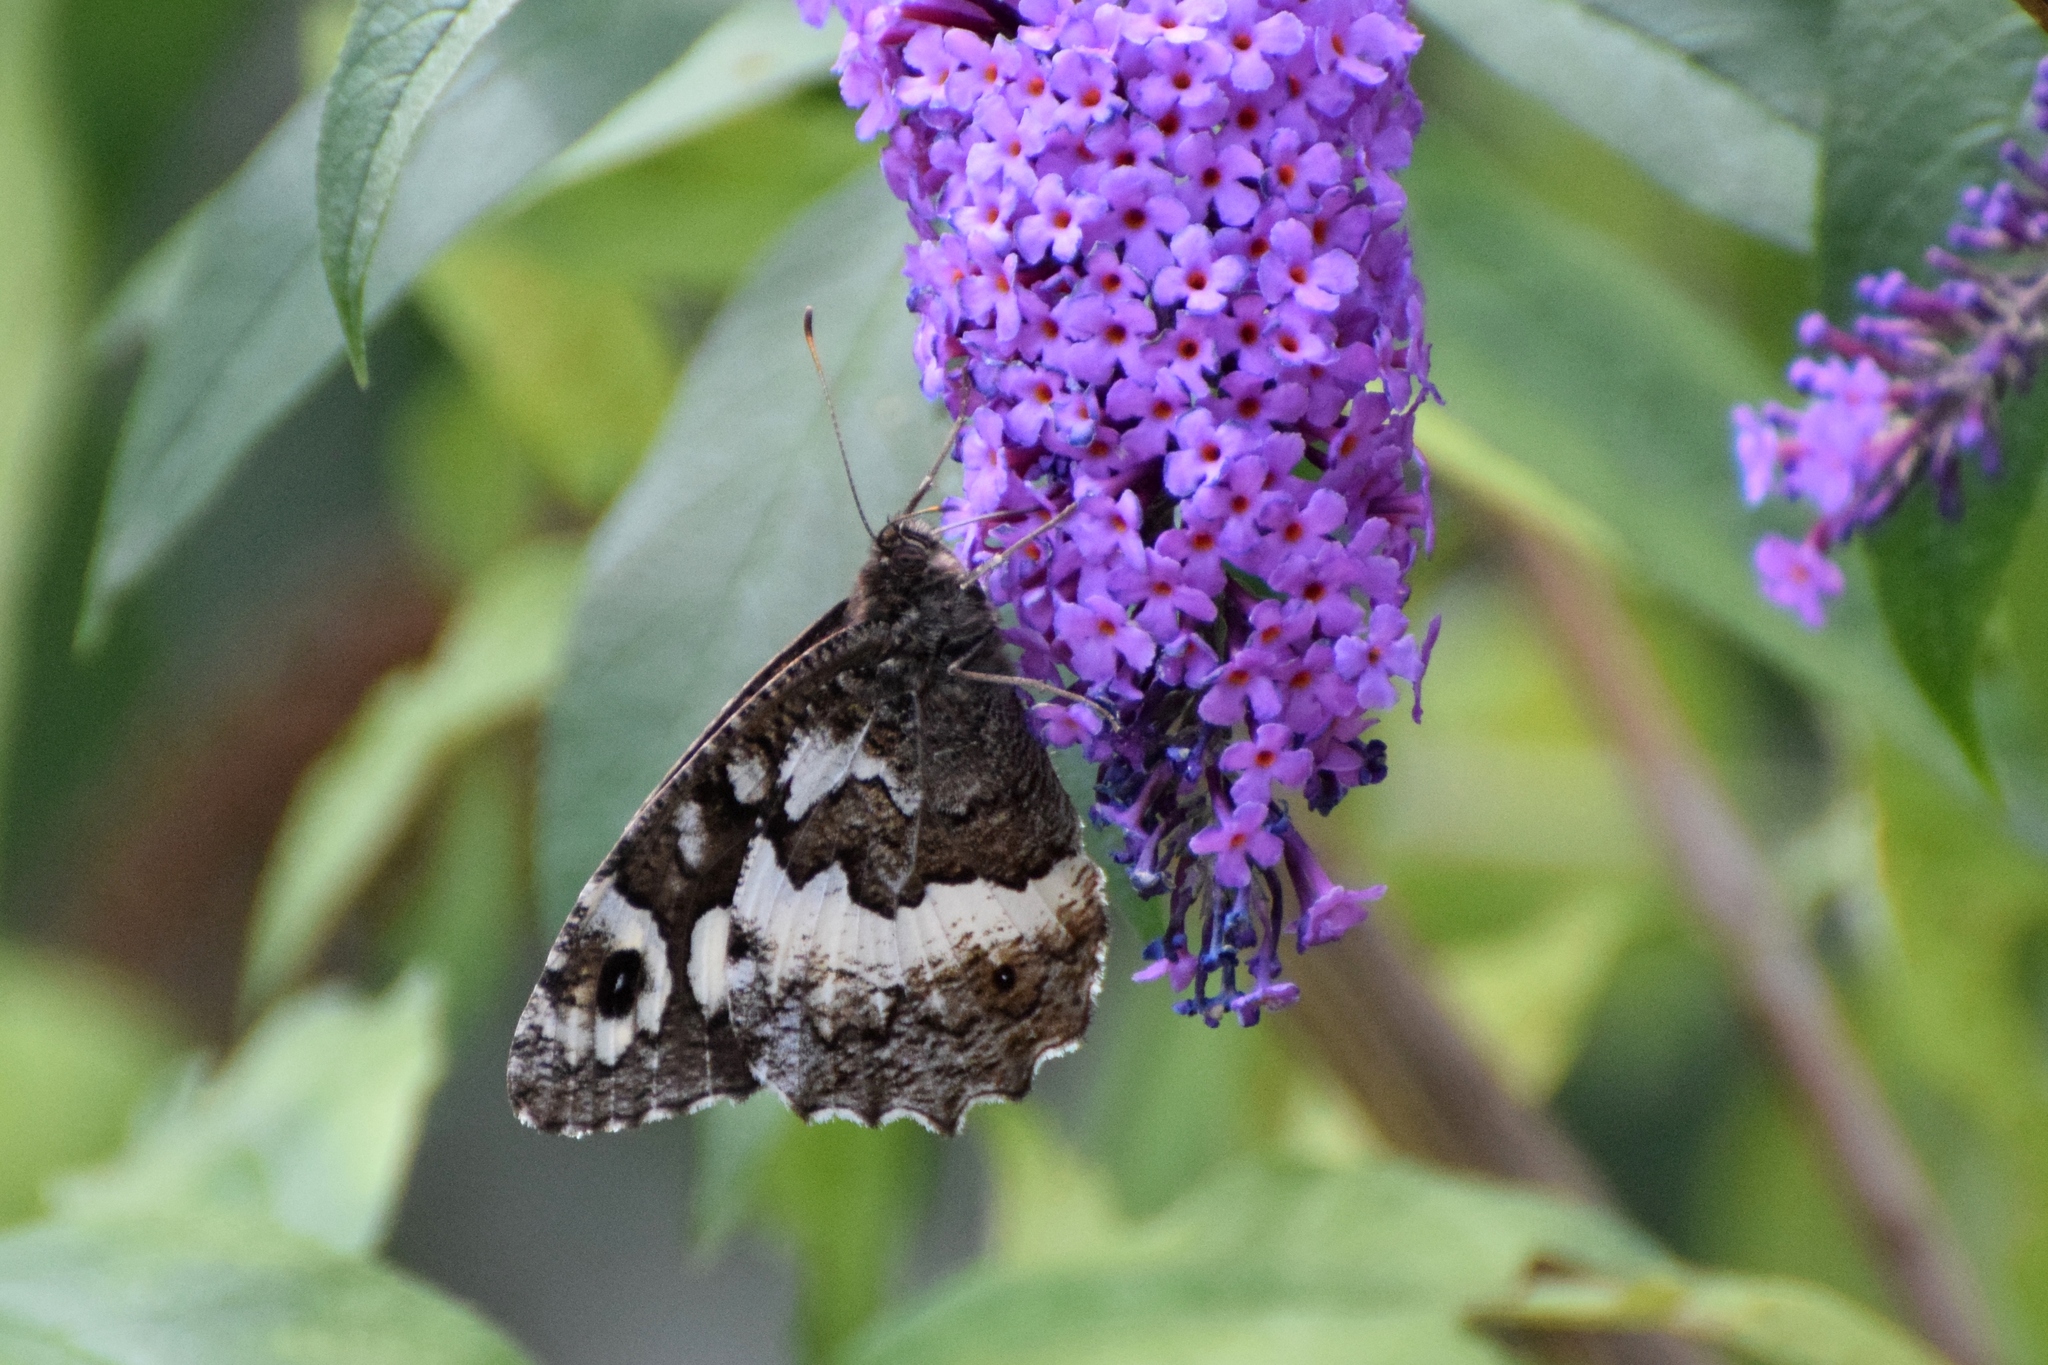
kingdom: Animalia
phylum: Arthropoda
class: Insecta
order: Lepidoptera
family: Lycaenidae
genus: Loweia
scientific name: Loweia tityrus
